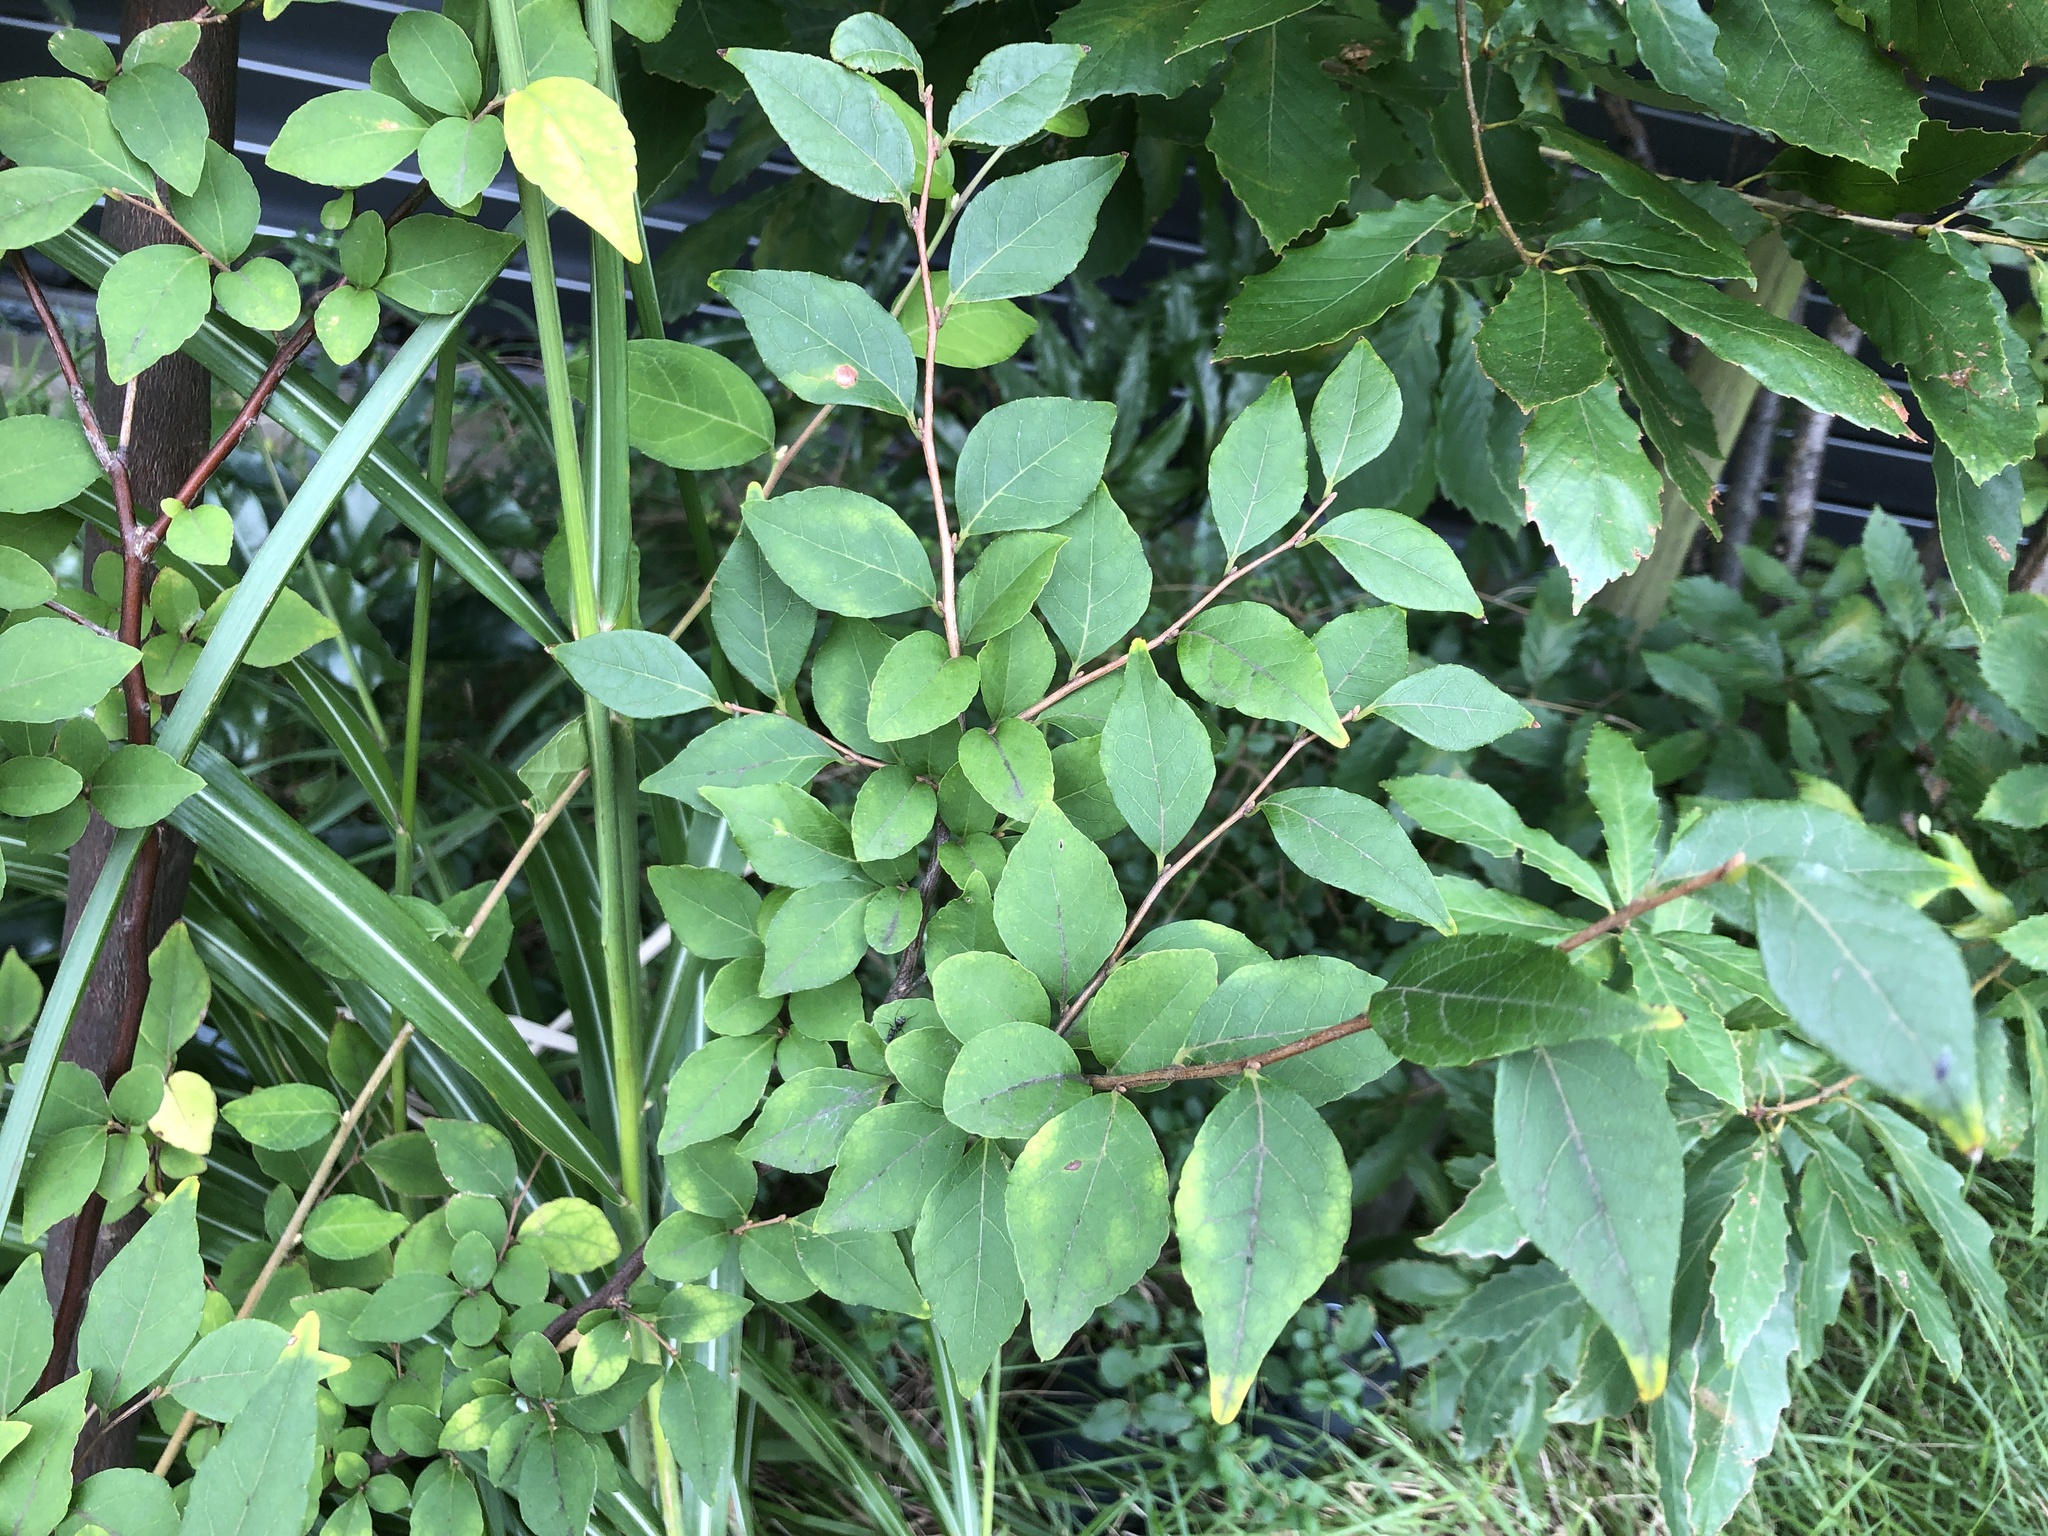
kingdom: Plantae
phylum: Tracheophyta
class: Magnoliopsida
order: Ericales
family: Styracaceae
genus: Styrax
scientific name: Styrax japonicus
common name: Japanese snowbell
